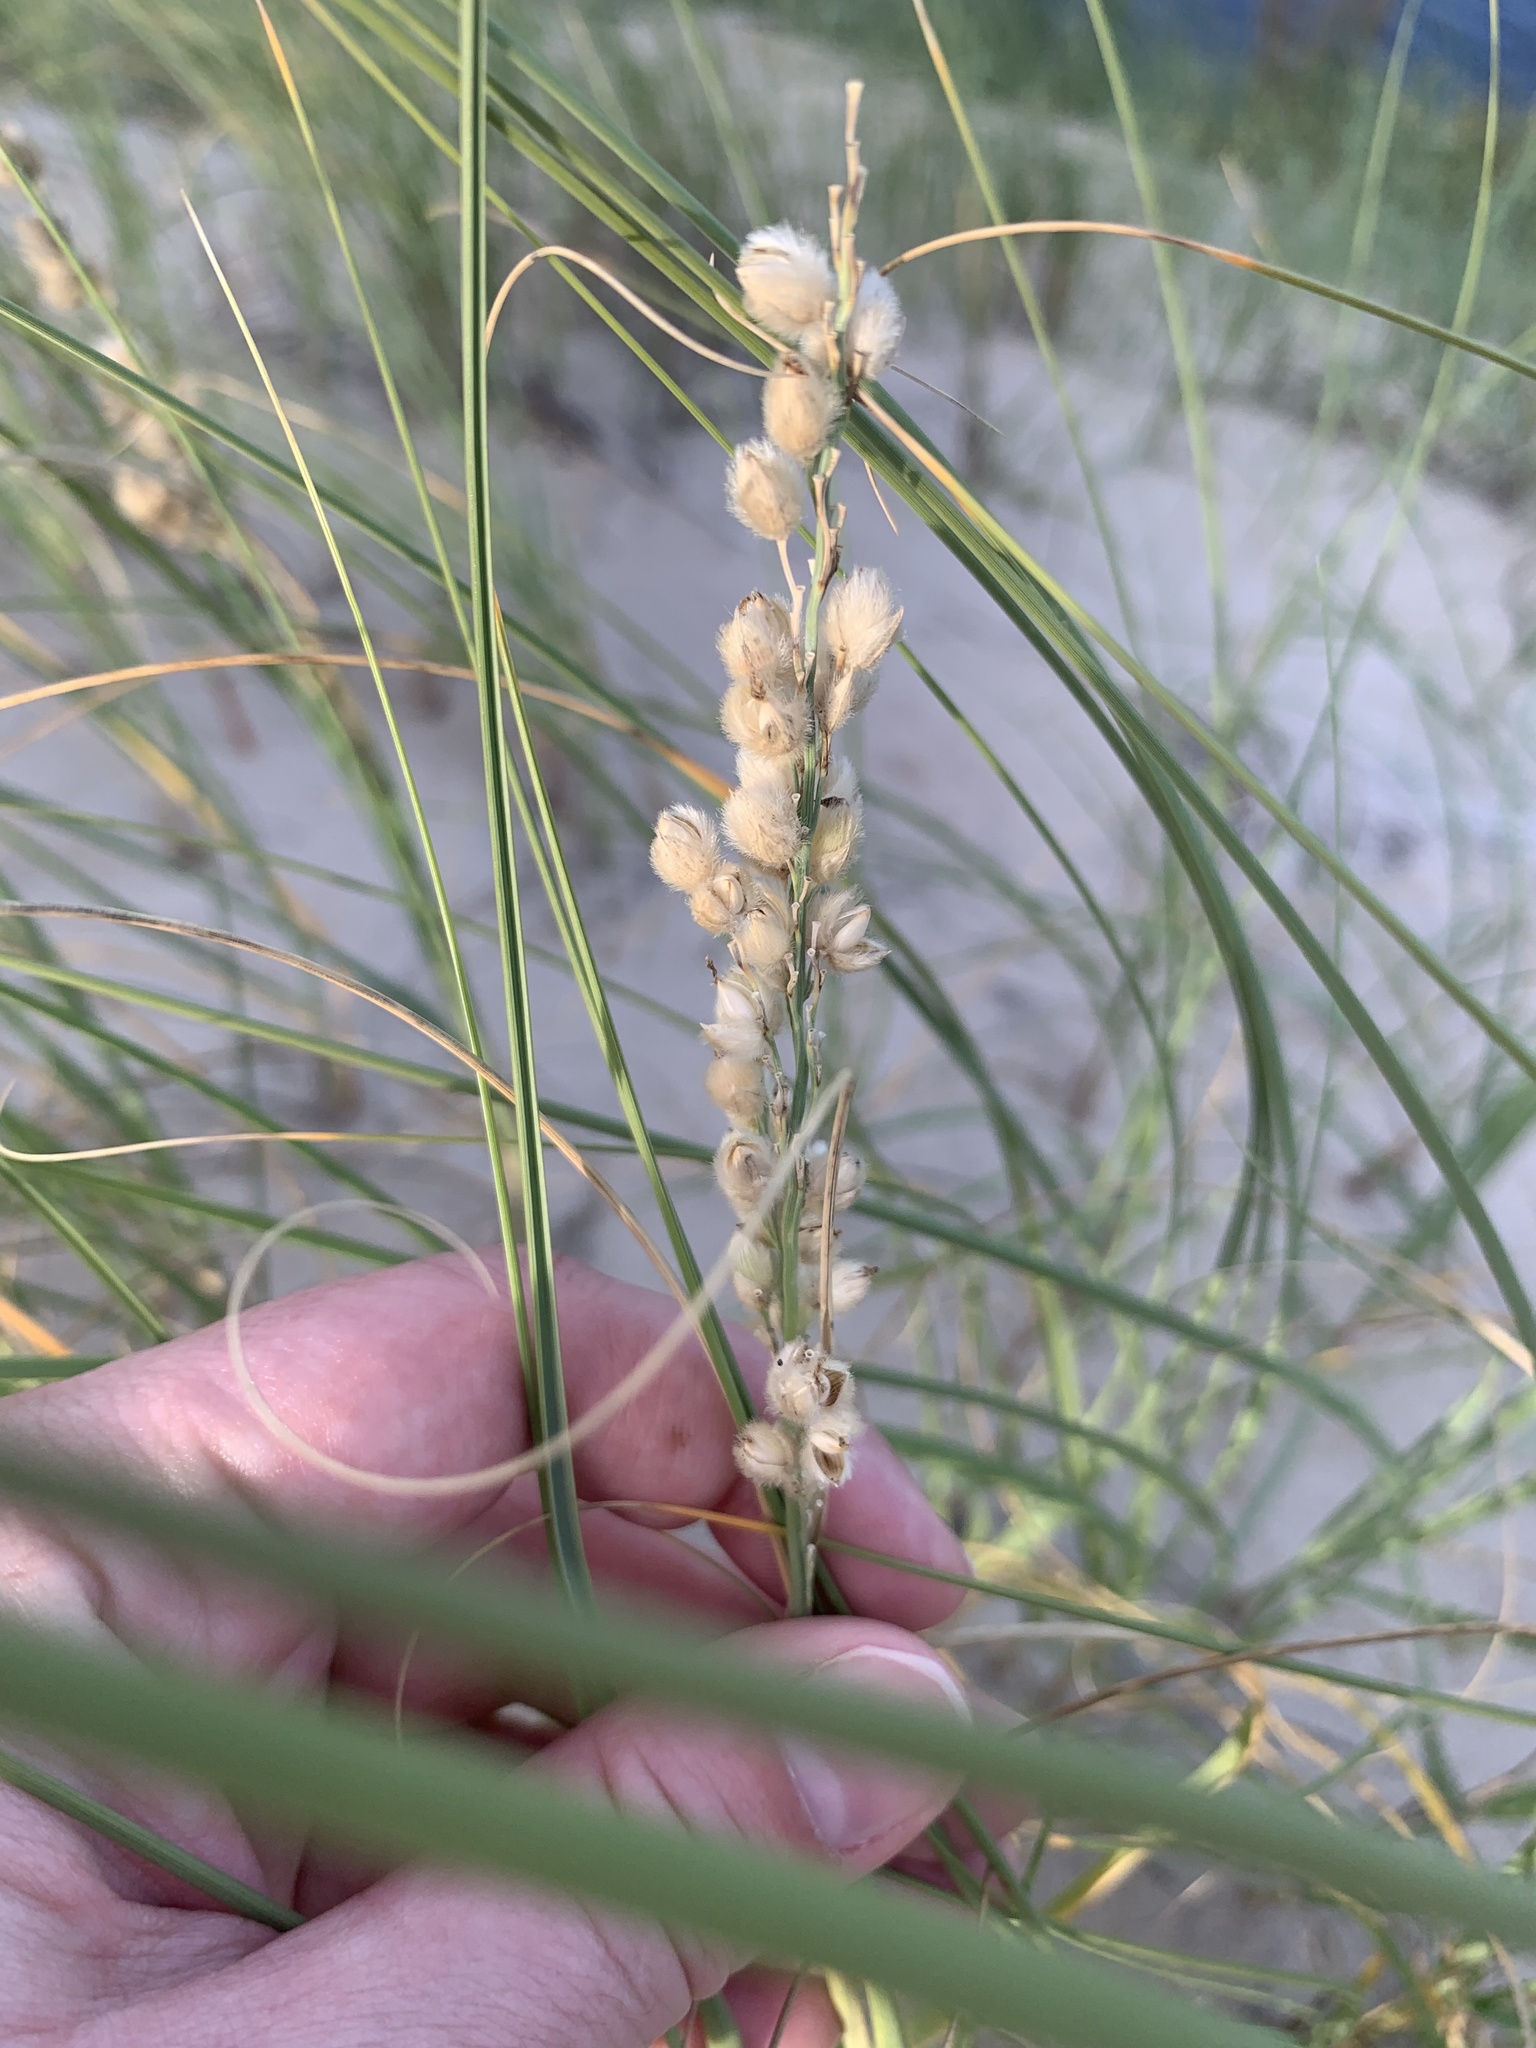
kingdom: Plantae
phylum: Tracheophyta
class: Liliopsida
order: Poales
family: Poaceae
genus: Panicum
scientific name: Panicum racemosum
